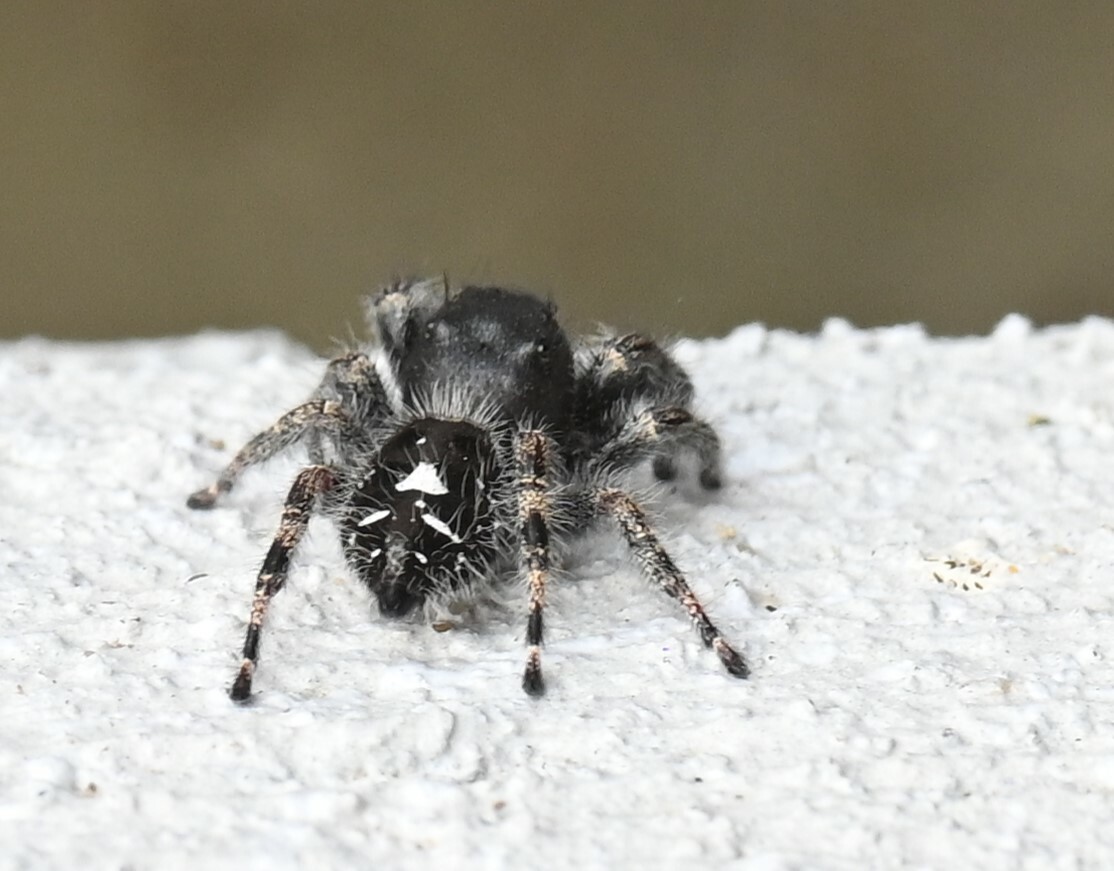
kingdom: Animalia
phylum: Arthropoda
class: Arachnida
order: Araneae
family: Salticidae
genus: Phidippus
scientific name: Phidippus audax
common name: Bold jumper
